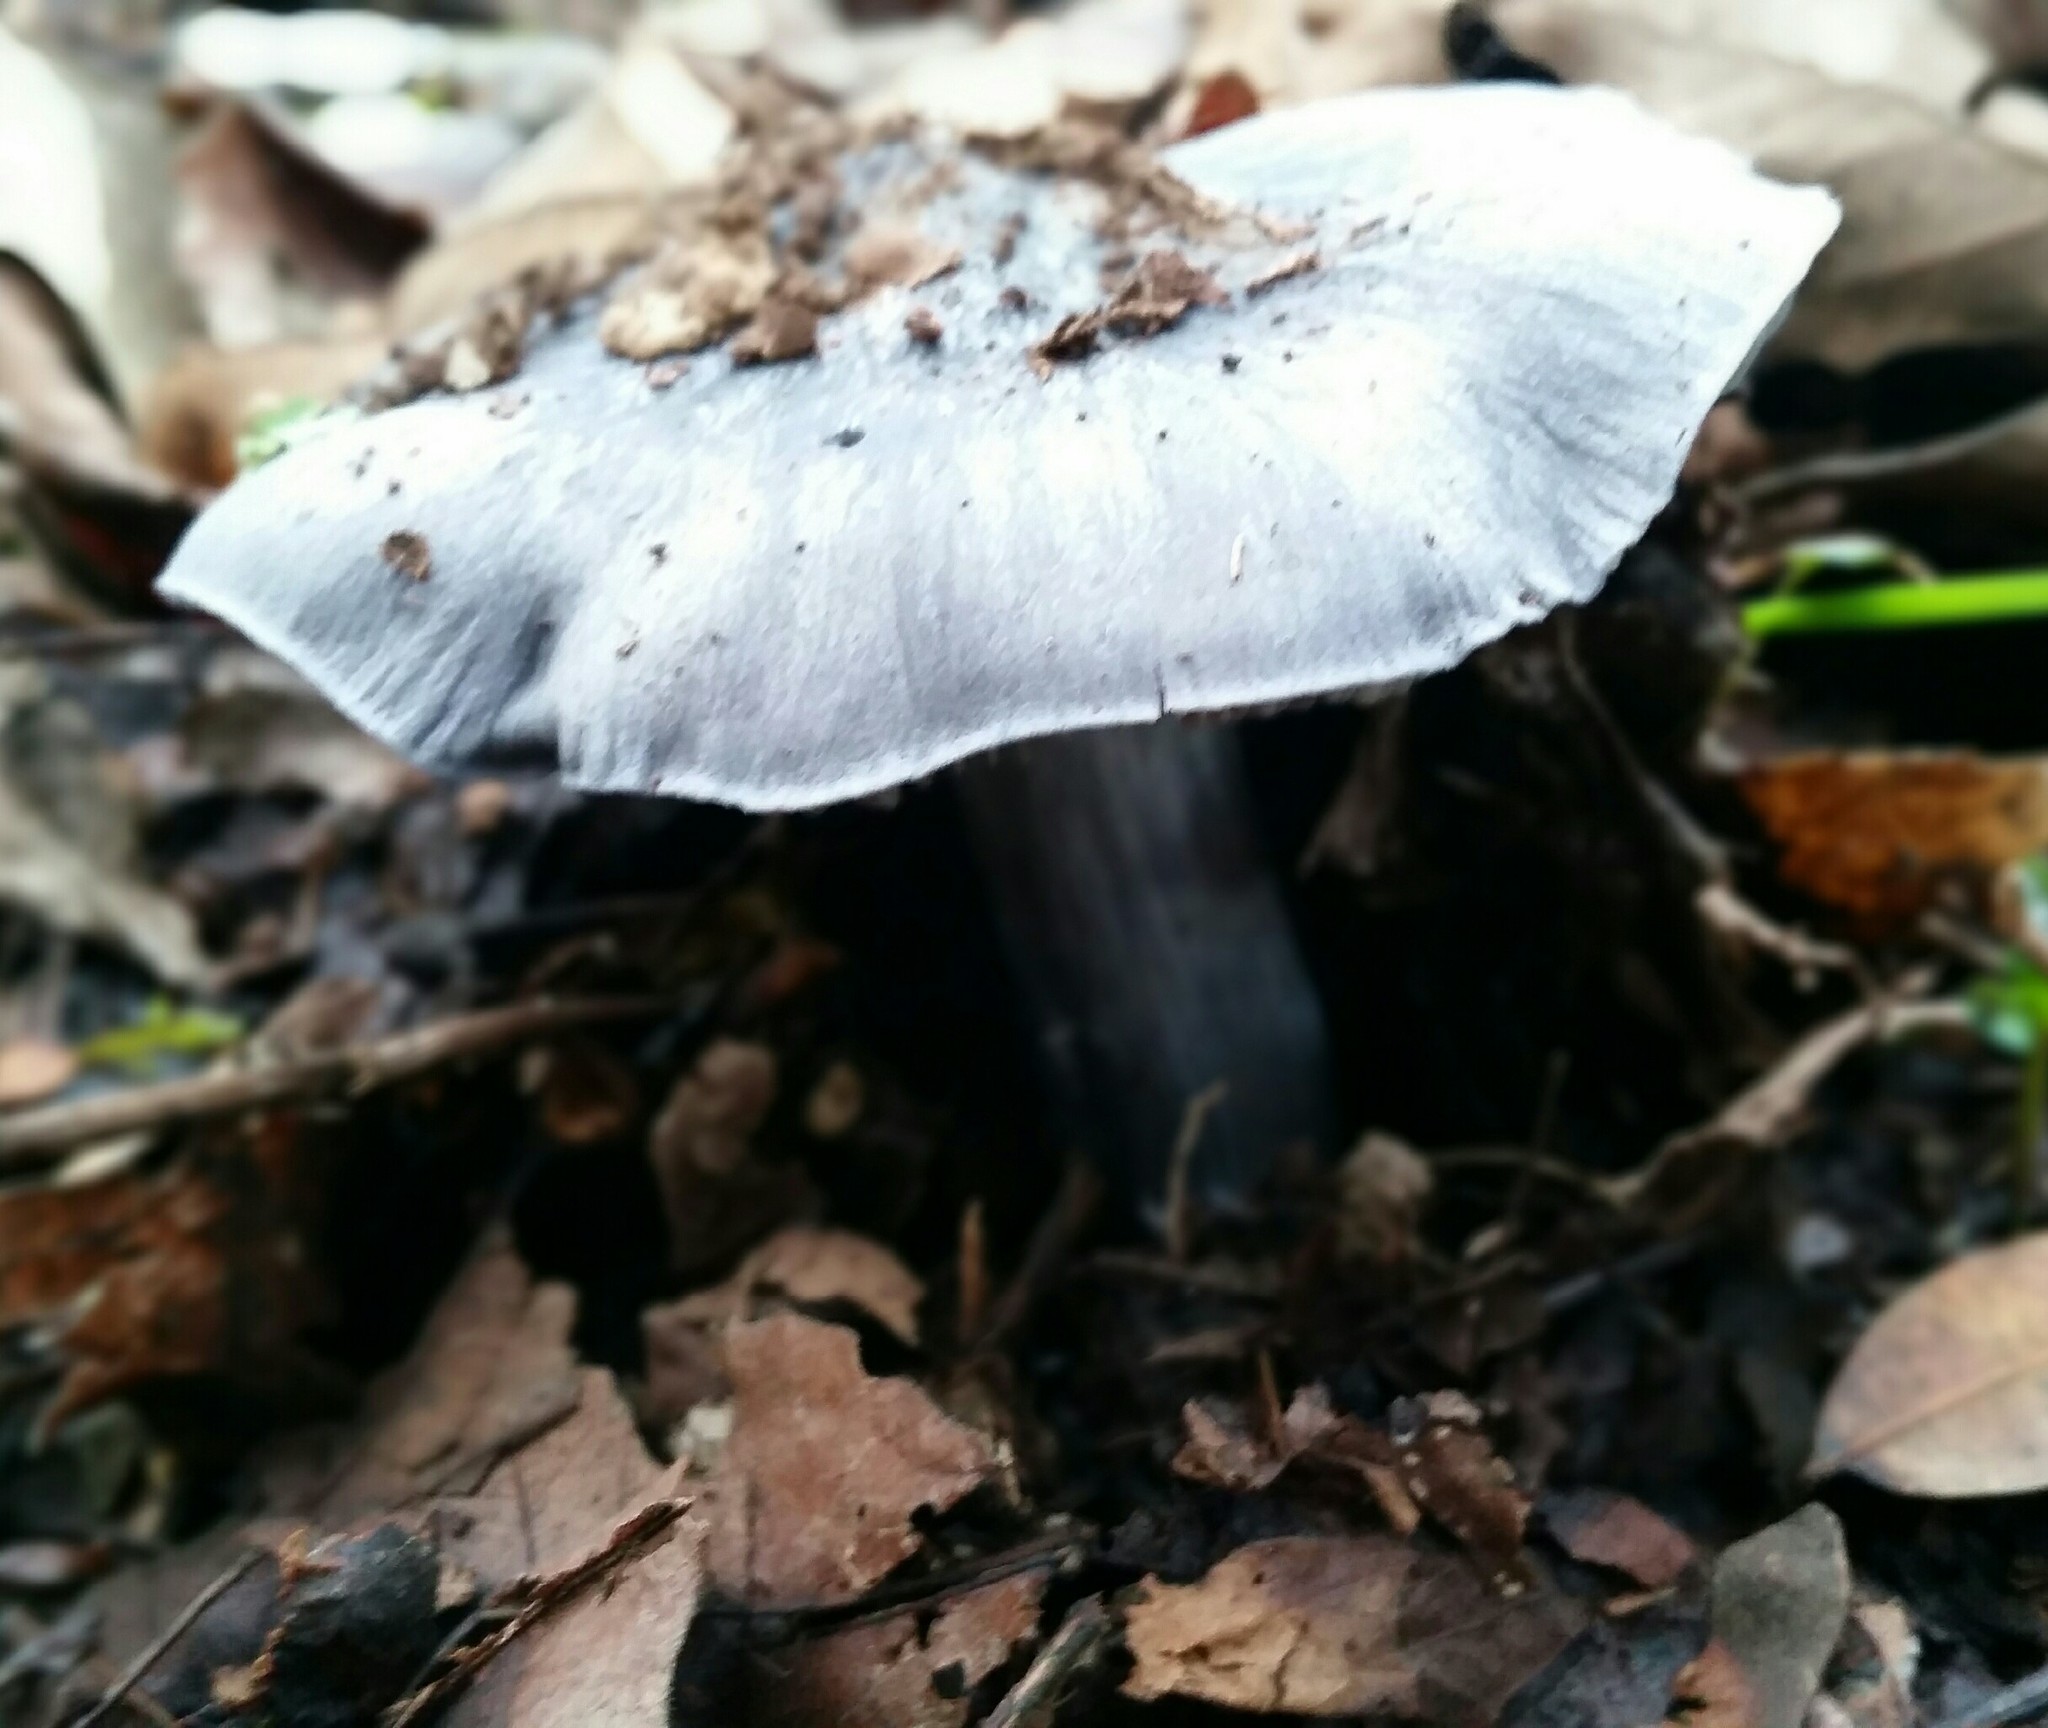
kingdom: Fungi
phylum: Basidiomycota
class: Agaricomycetes
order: Agaricales
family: Entolomataceae
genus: Entoloma
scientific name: Entoloma medianox
